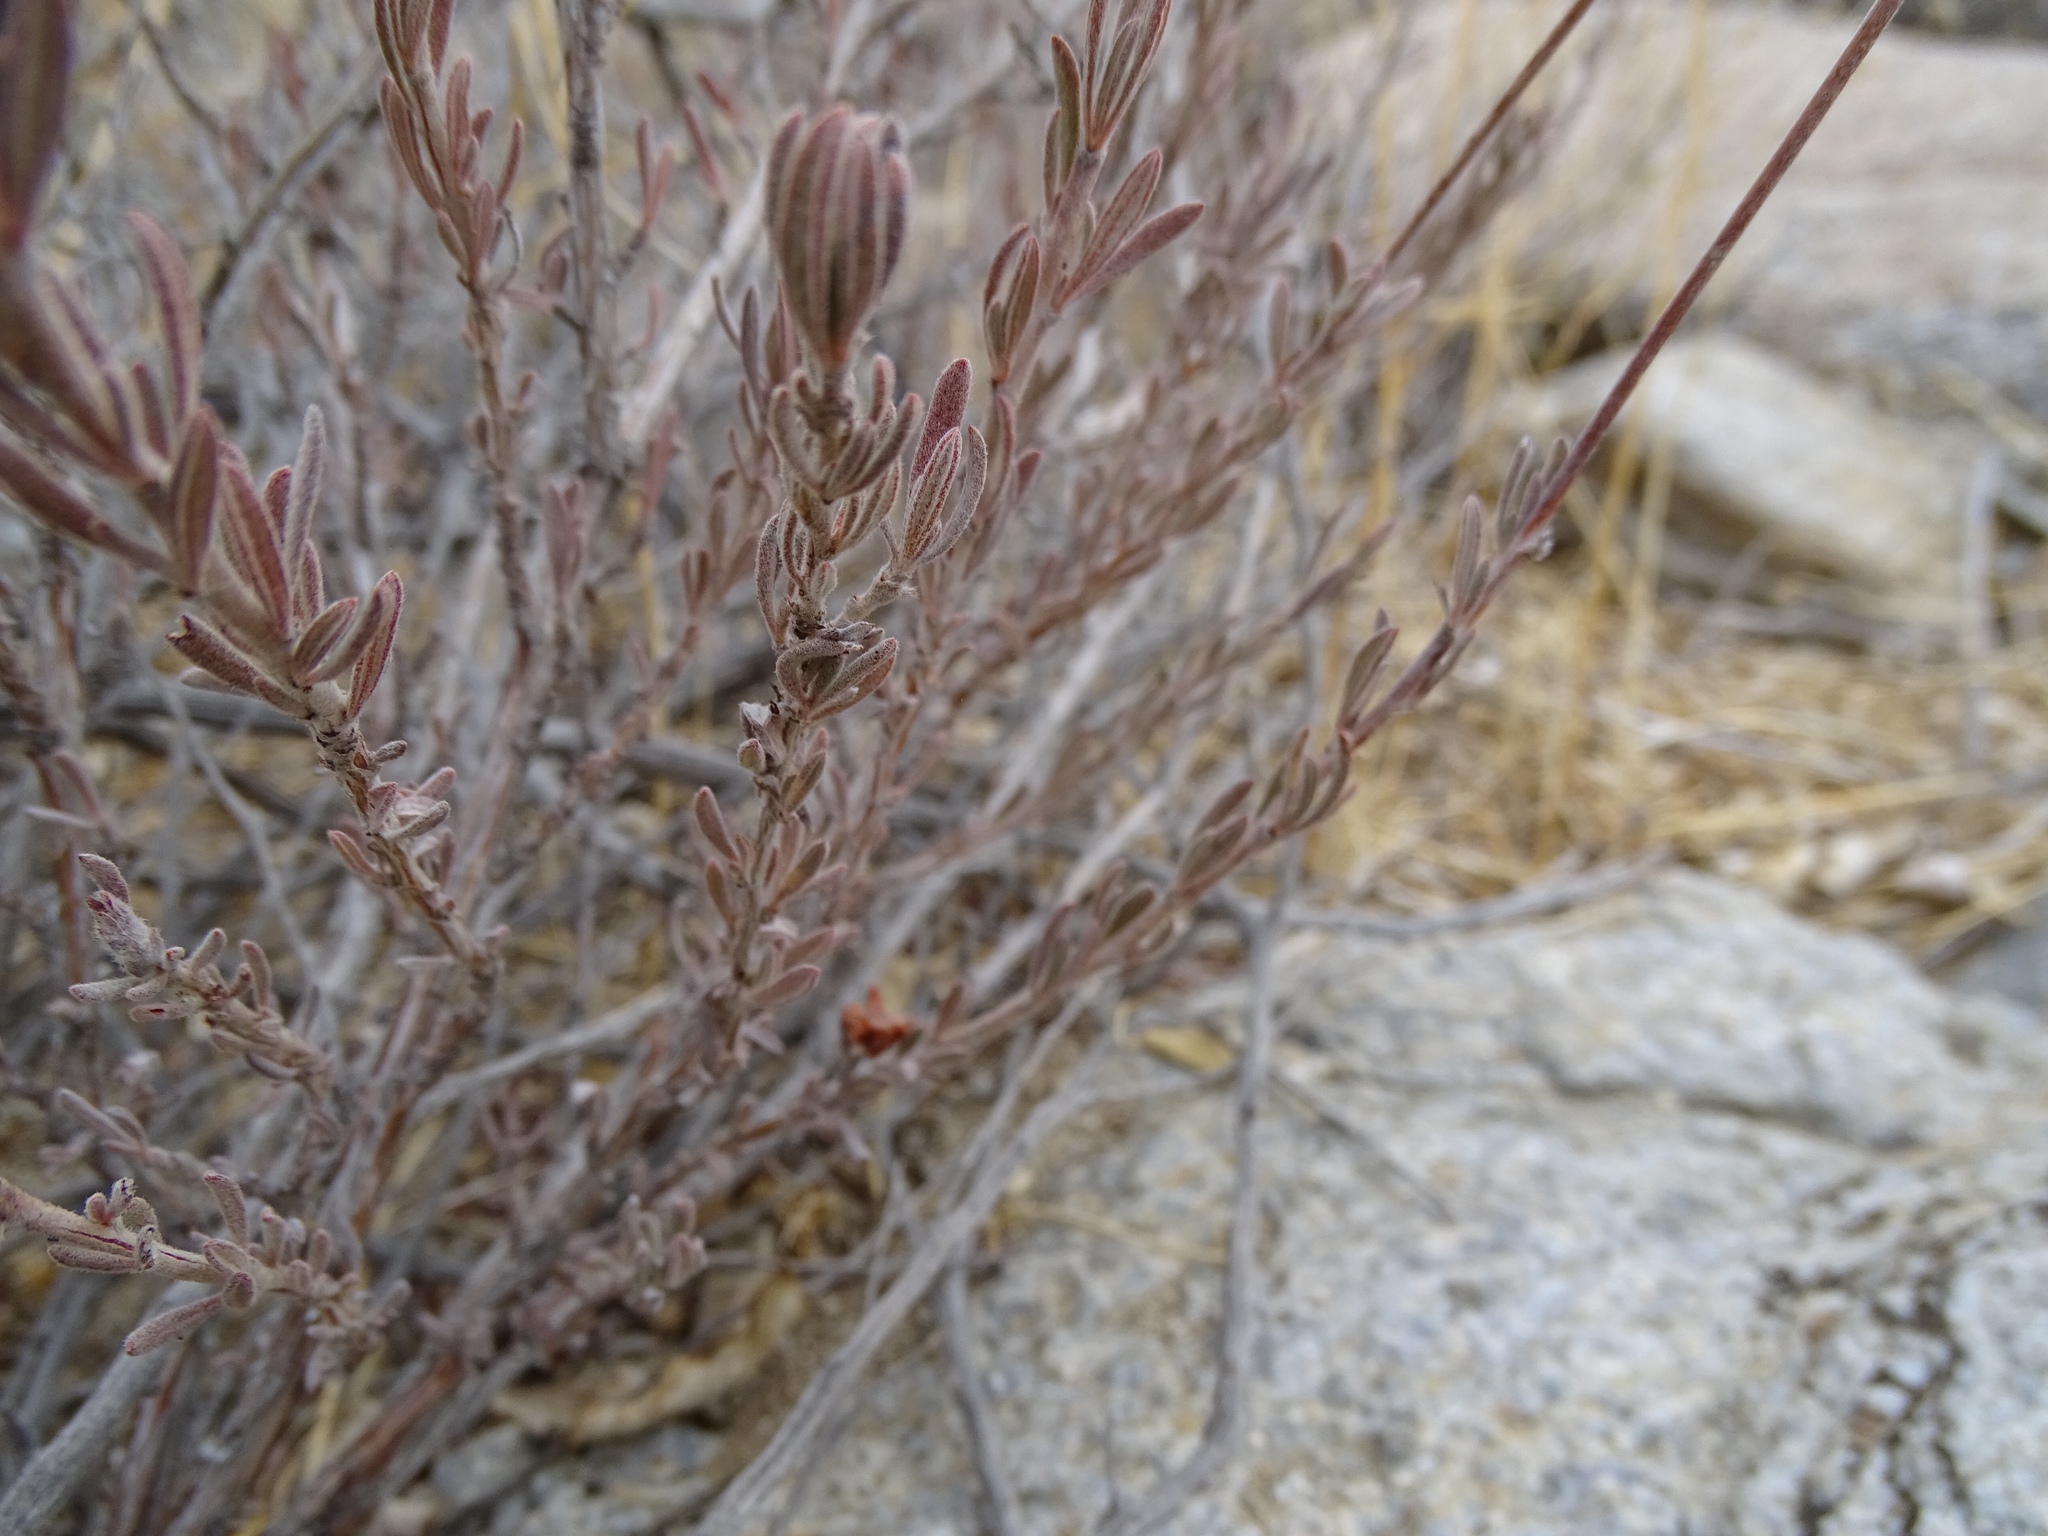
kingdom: Plantae
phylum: Tracheophyta
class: Magnoliopsida
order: Caryophyllales
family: Polygonaceae
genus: Eriogonum
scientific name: Eriogonum fasciculatum
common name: California wild buckwheat
